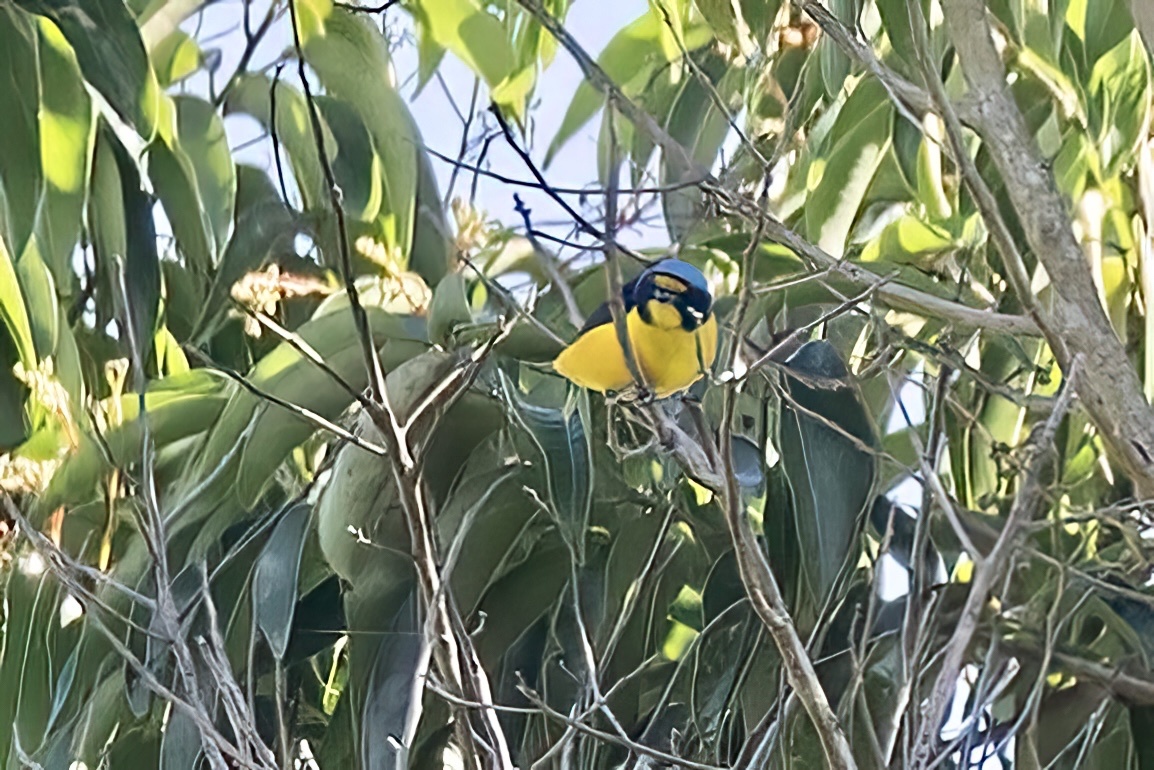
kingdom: Animalia
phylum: Chordata
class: Aves
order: Passeriformes
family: Fringillidae
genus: Euphonia
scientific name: Euphonia musica
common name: Antillean euphonia
